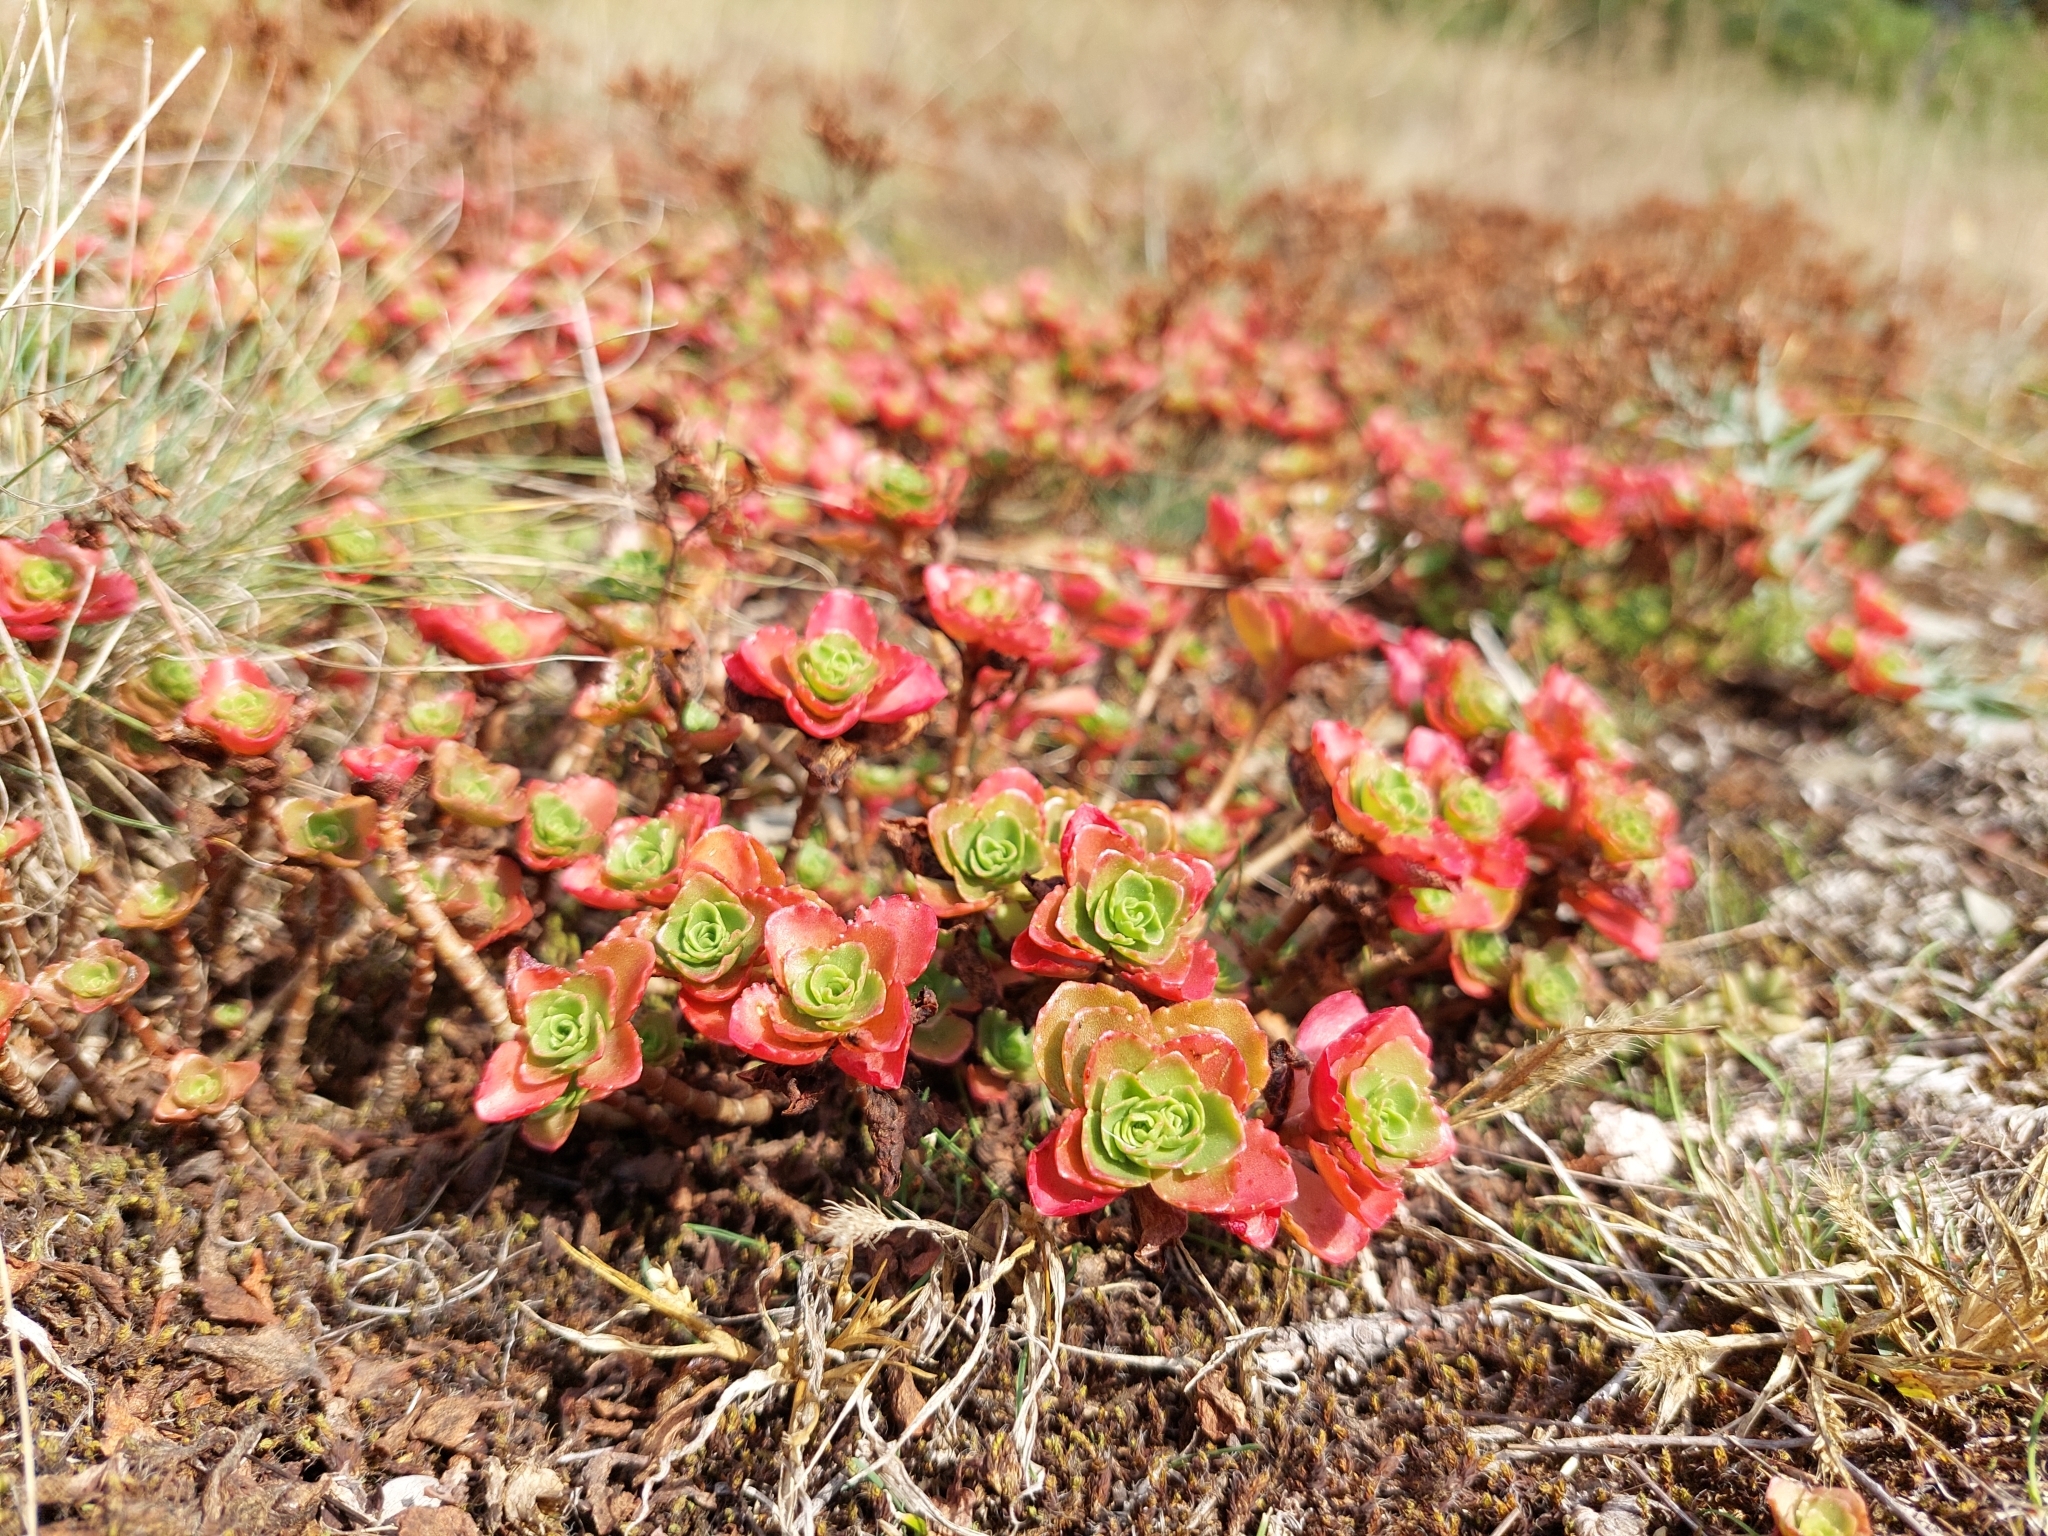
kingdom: Plantae
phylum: Tracheophyta
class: Magnoliopsida
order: Saxifragales
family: Crassulaceae
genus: Phedimus
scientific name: Phedimus spurius
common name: Caucasian stonecrop
